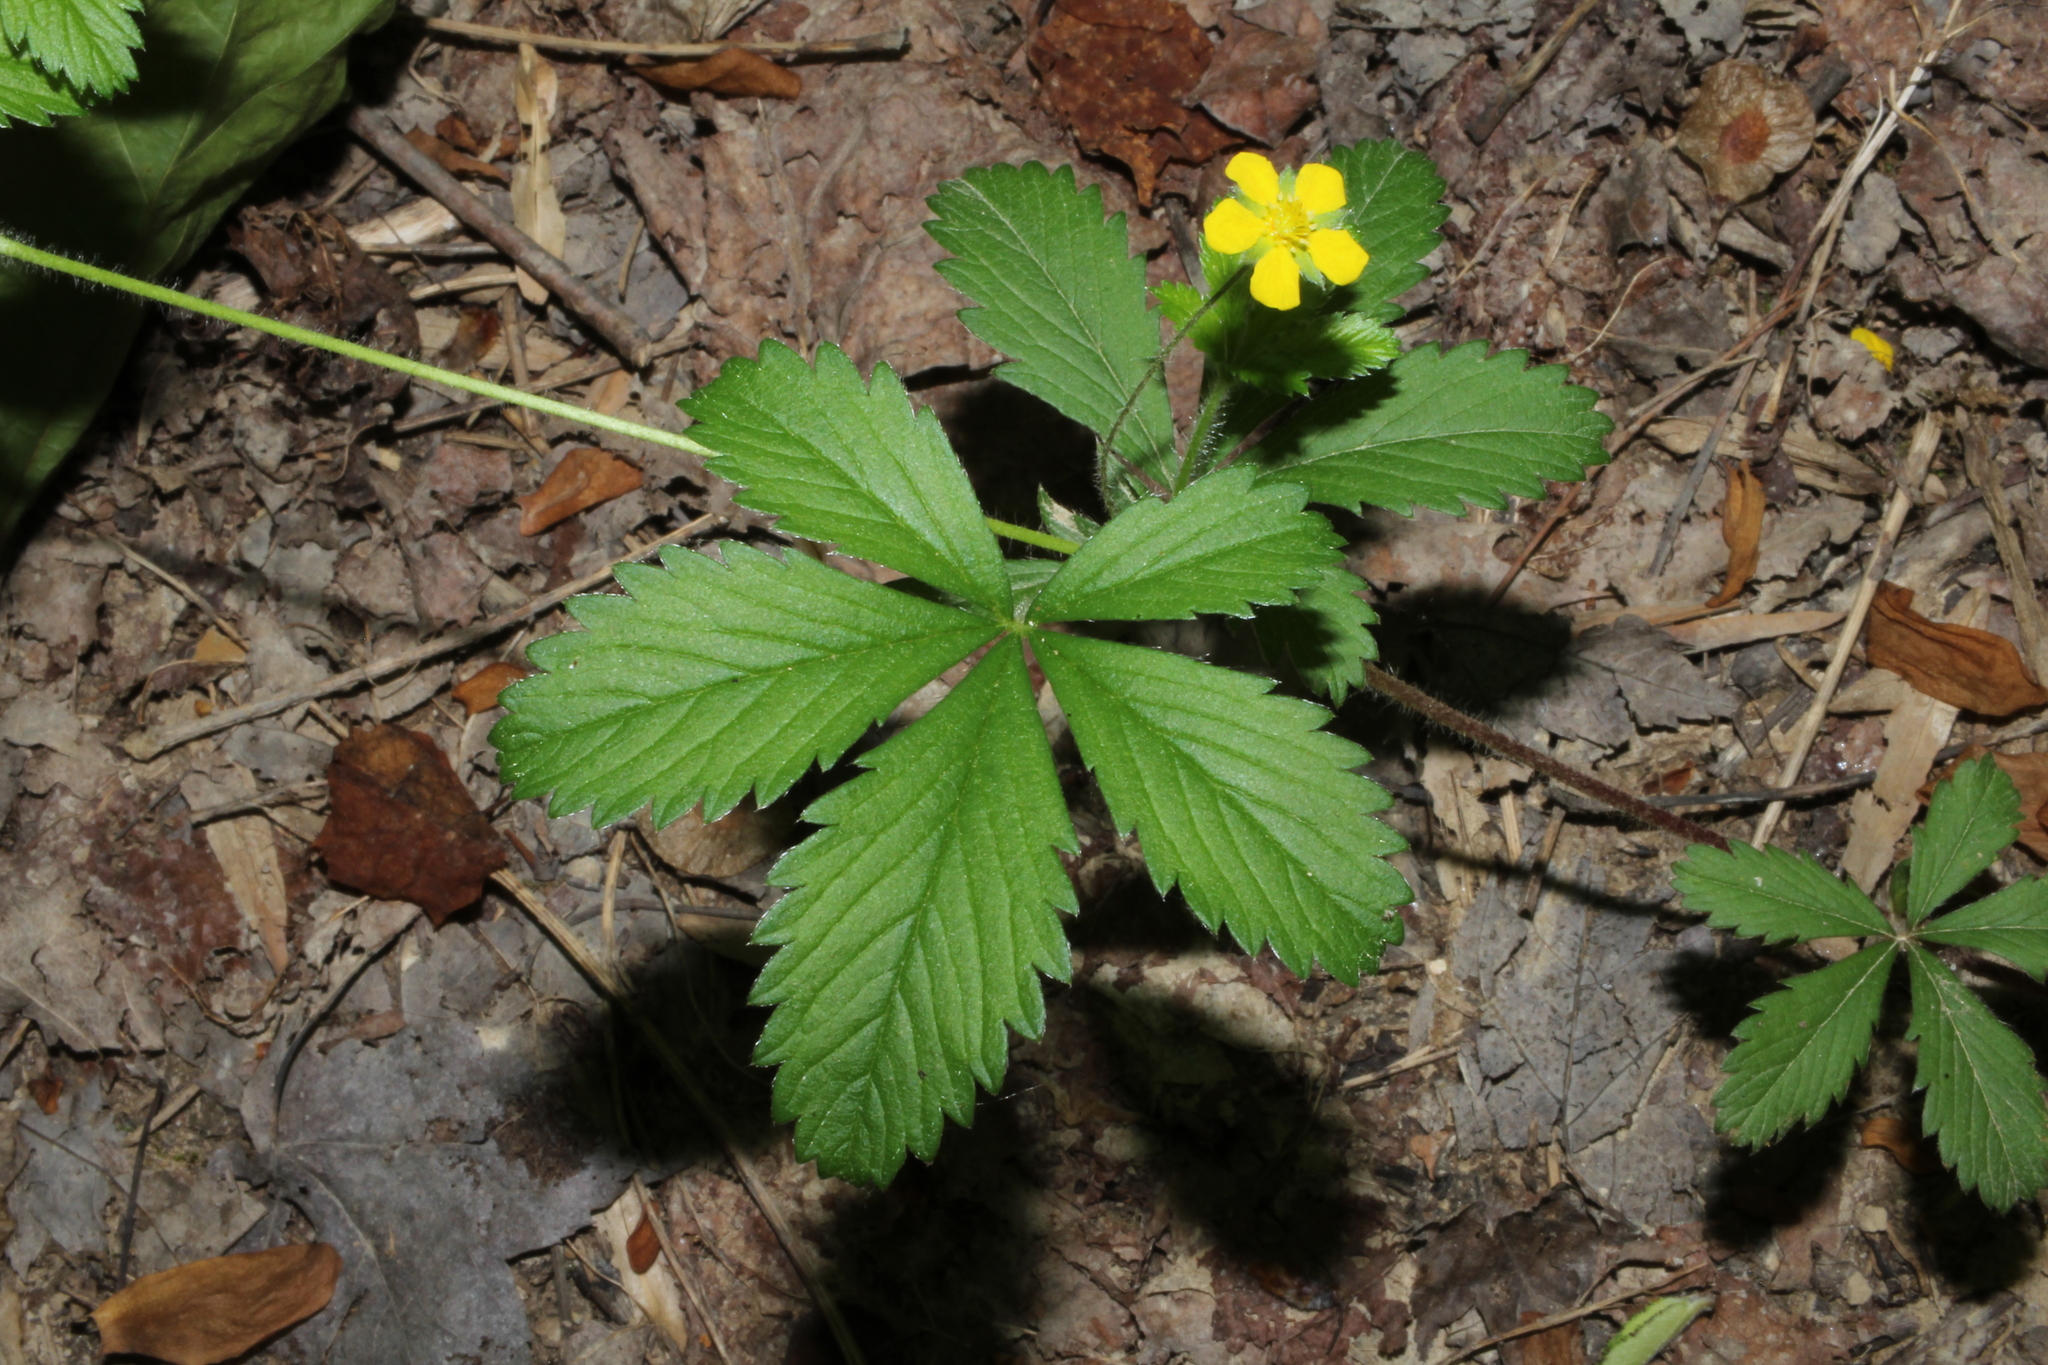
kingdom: Plantae
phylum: Tracheophyta
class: Magnoliopsida
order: Rosales
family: Rosaceae
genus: Potentilla
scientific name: Potentilla simplex
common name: Old field cinquefoil
